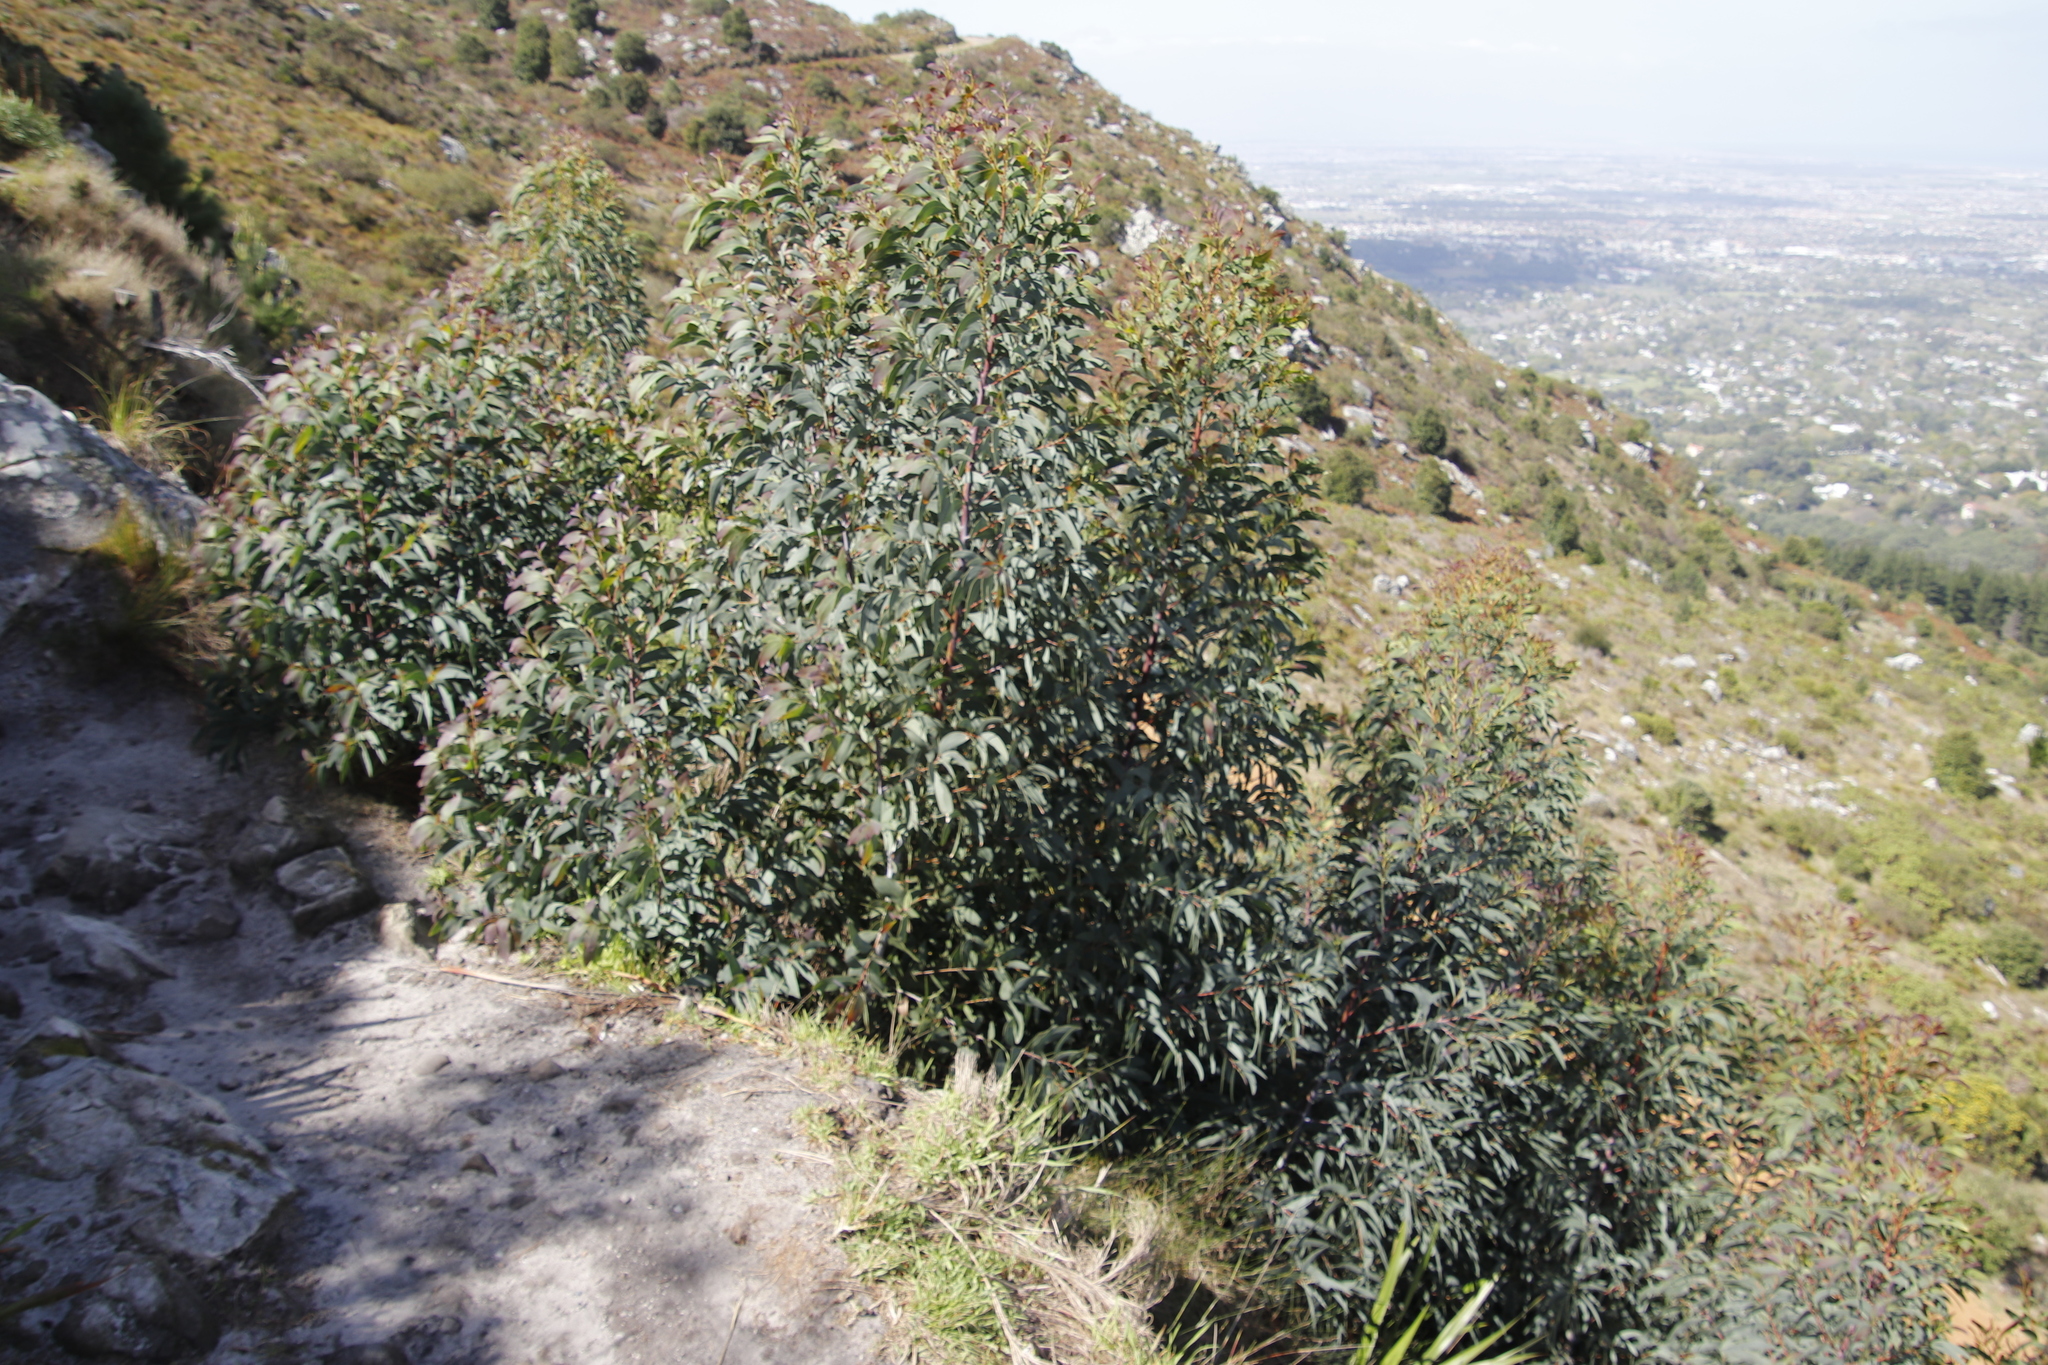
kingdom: Plantae
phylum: Tracheophyta
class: Magnoliopsida
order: Fabales
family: Fabaceae
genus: Acacia
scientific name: Acacia falciformis
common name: Tanning wattle
